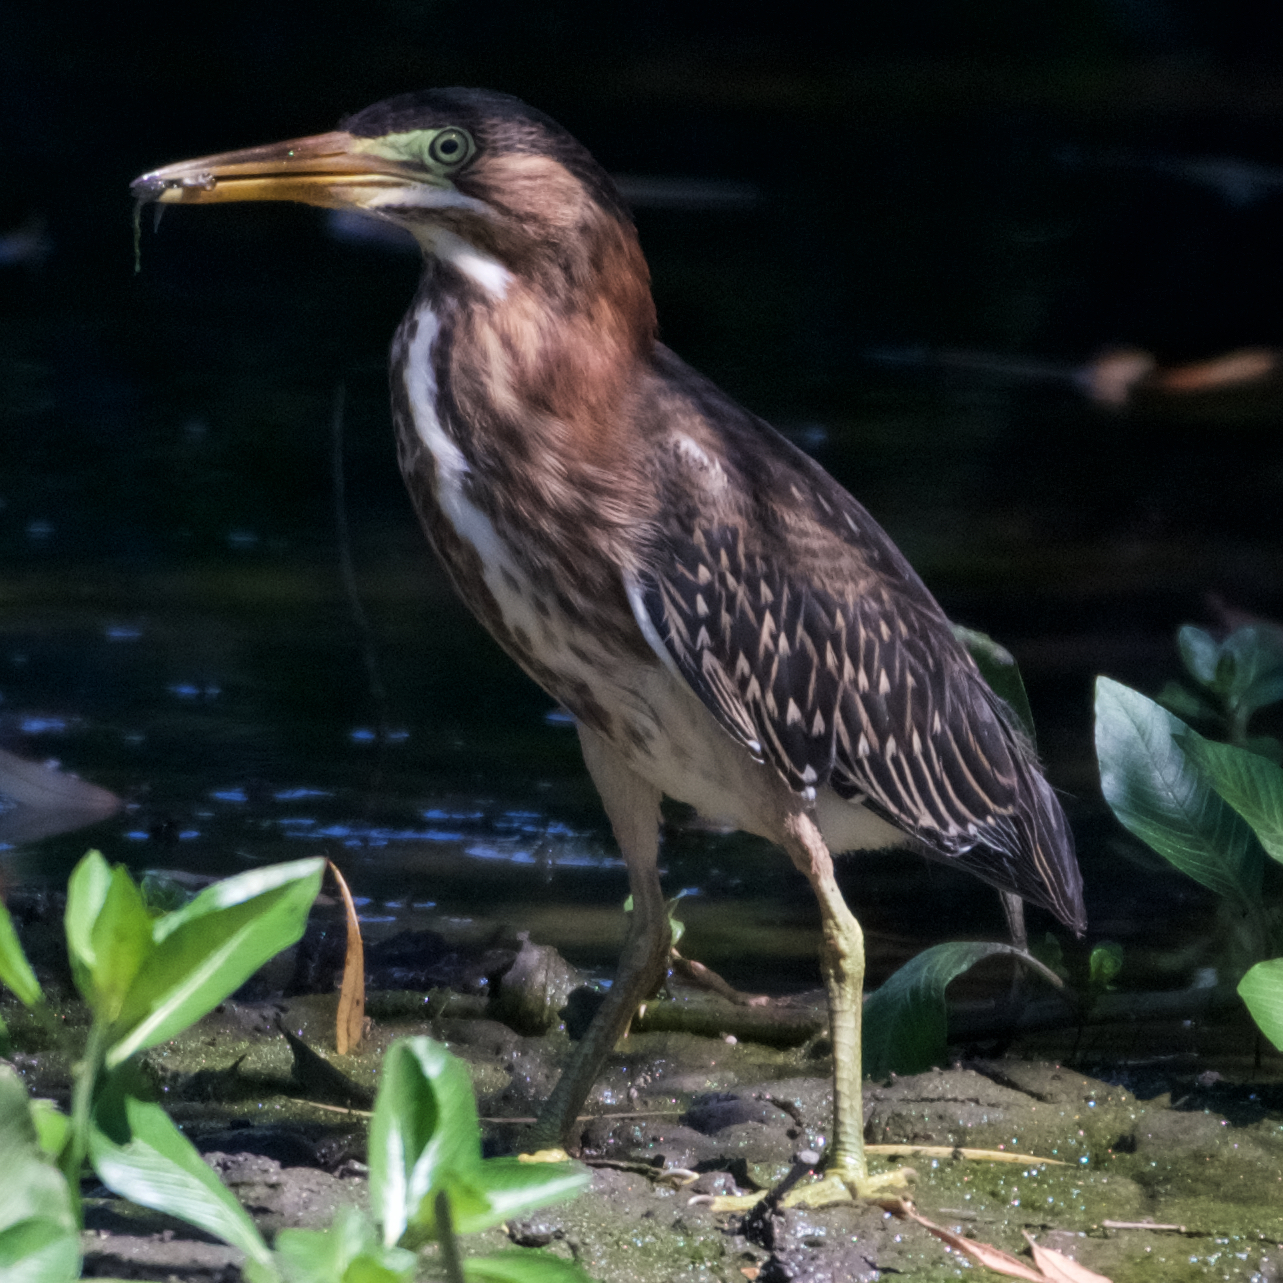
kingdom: Animalia
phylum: Chordata
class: Aves
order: Pelecaniformes
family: Ardeidae
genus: Butorides
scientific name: Butorides virescens
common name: Green heron
